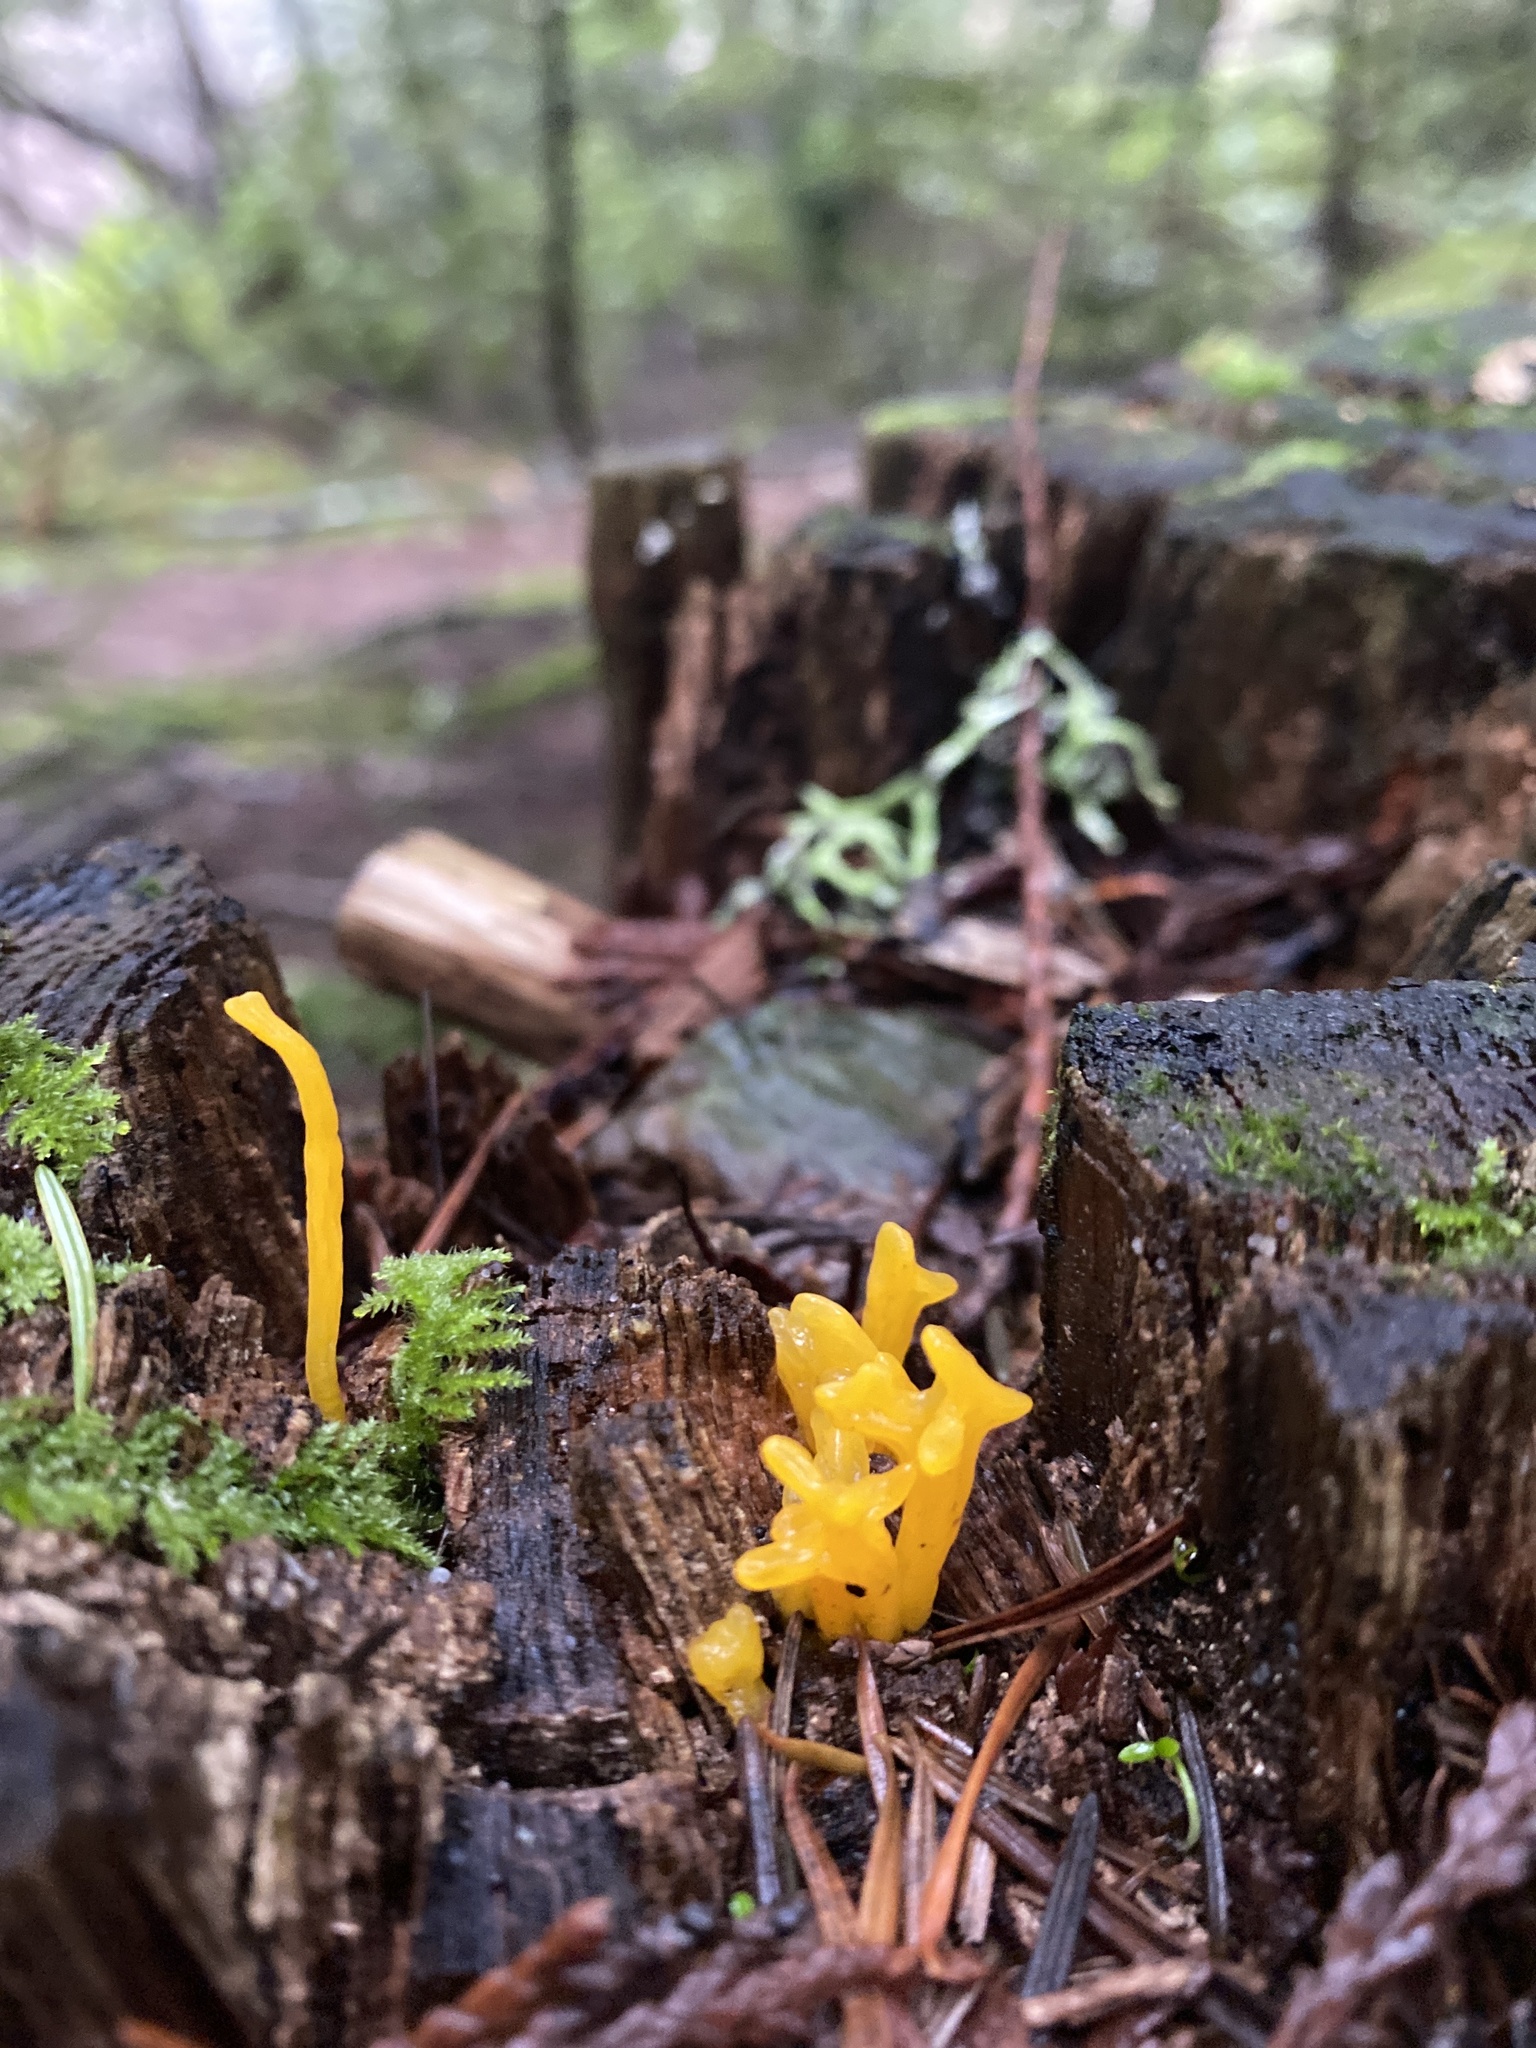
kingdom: Fungi
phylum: Basidiomycota
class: Dacrymycetes
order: Dacrymycetales
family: Dacrymycetaceae
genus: Calocera
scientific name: Calocera viscosa
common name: Yellow stagshorn
